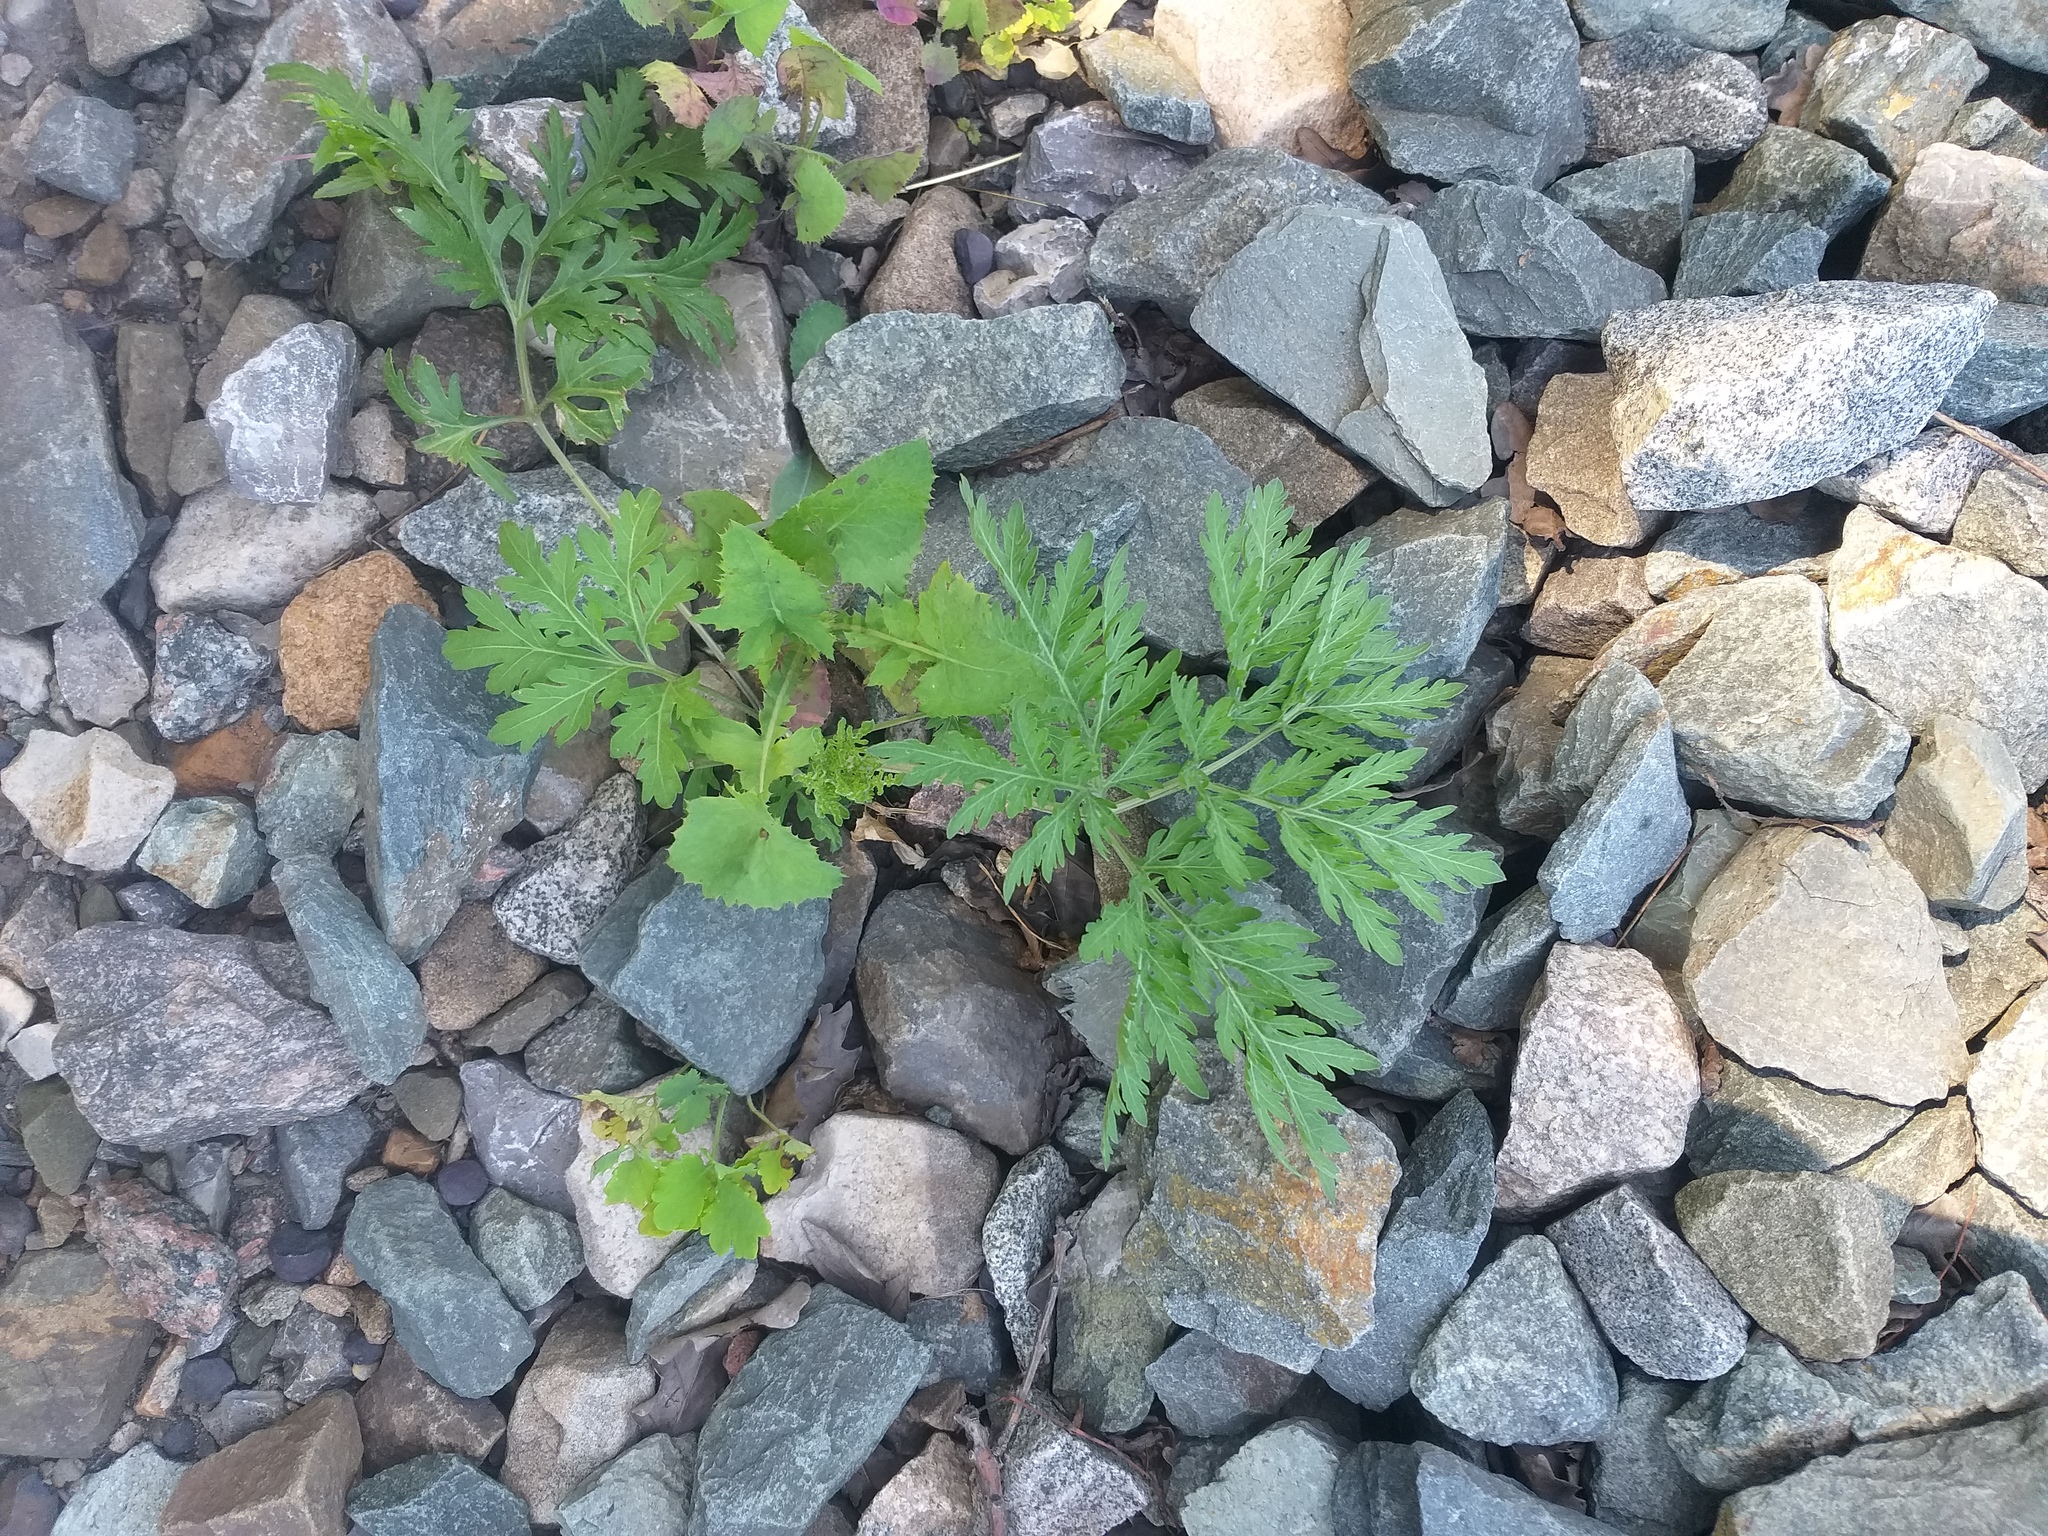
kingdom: Plantae
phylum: Tracheophyta
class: Magnoliopsida
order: Asterales
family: Asteraceae
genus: Artemisia
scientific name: Artemisia sieversiana
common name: Sieversian wormwood
